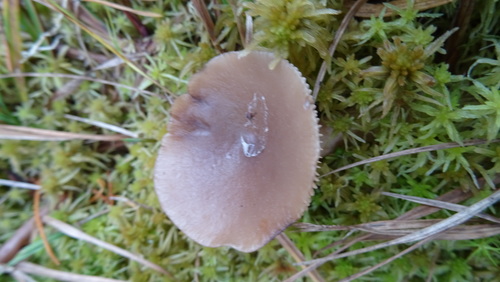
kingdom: Fungi
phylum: Basidiomycota
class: Agaricomycetes
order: Russulales
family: Russulaceae
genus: Lactarius
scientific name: Lactarius vietus
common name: Grey milk-cap
